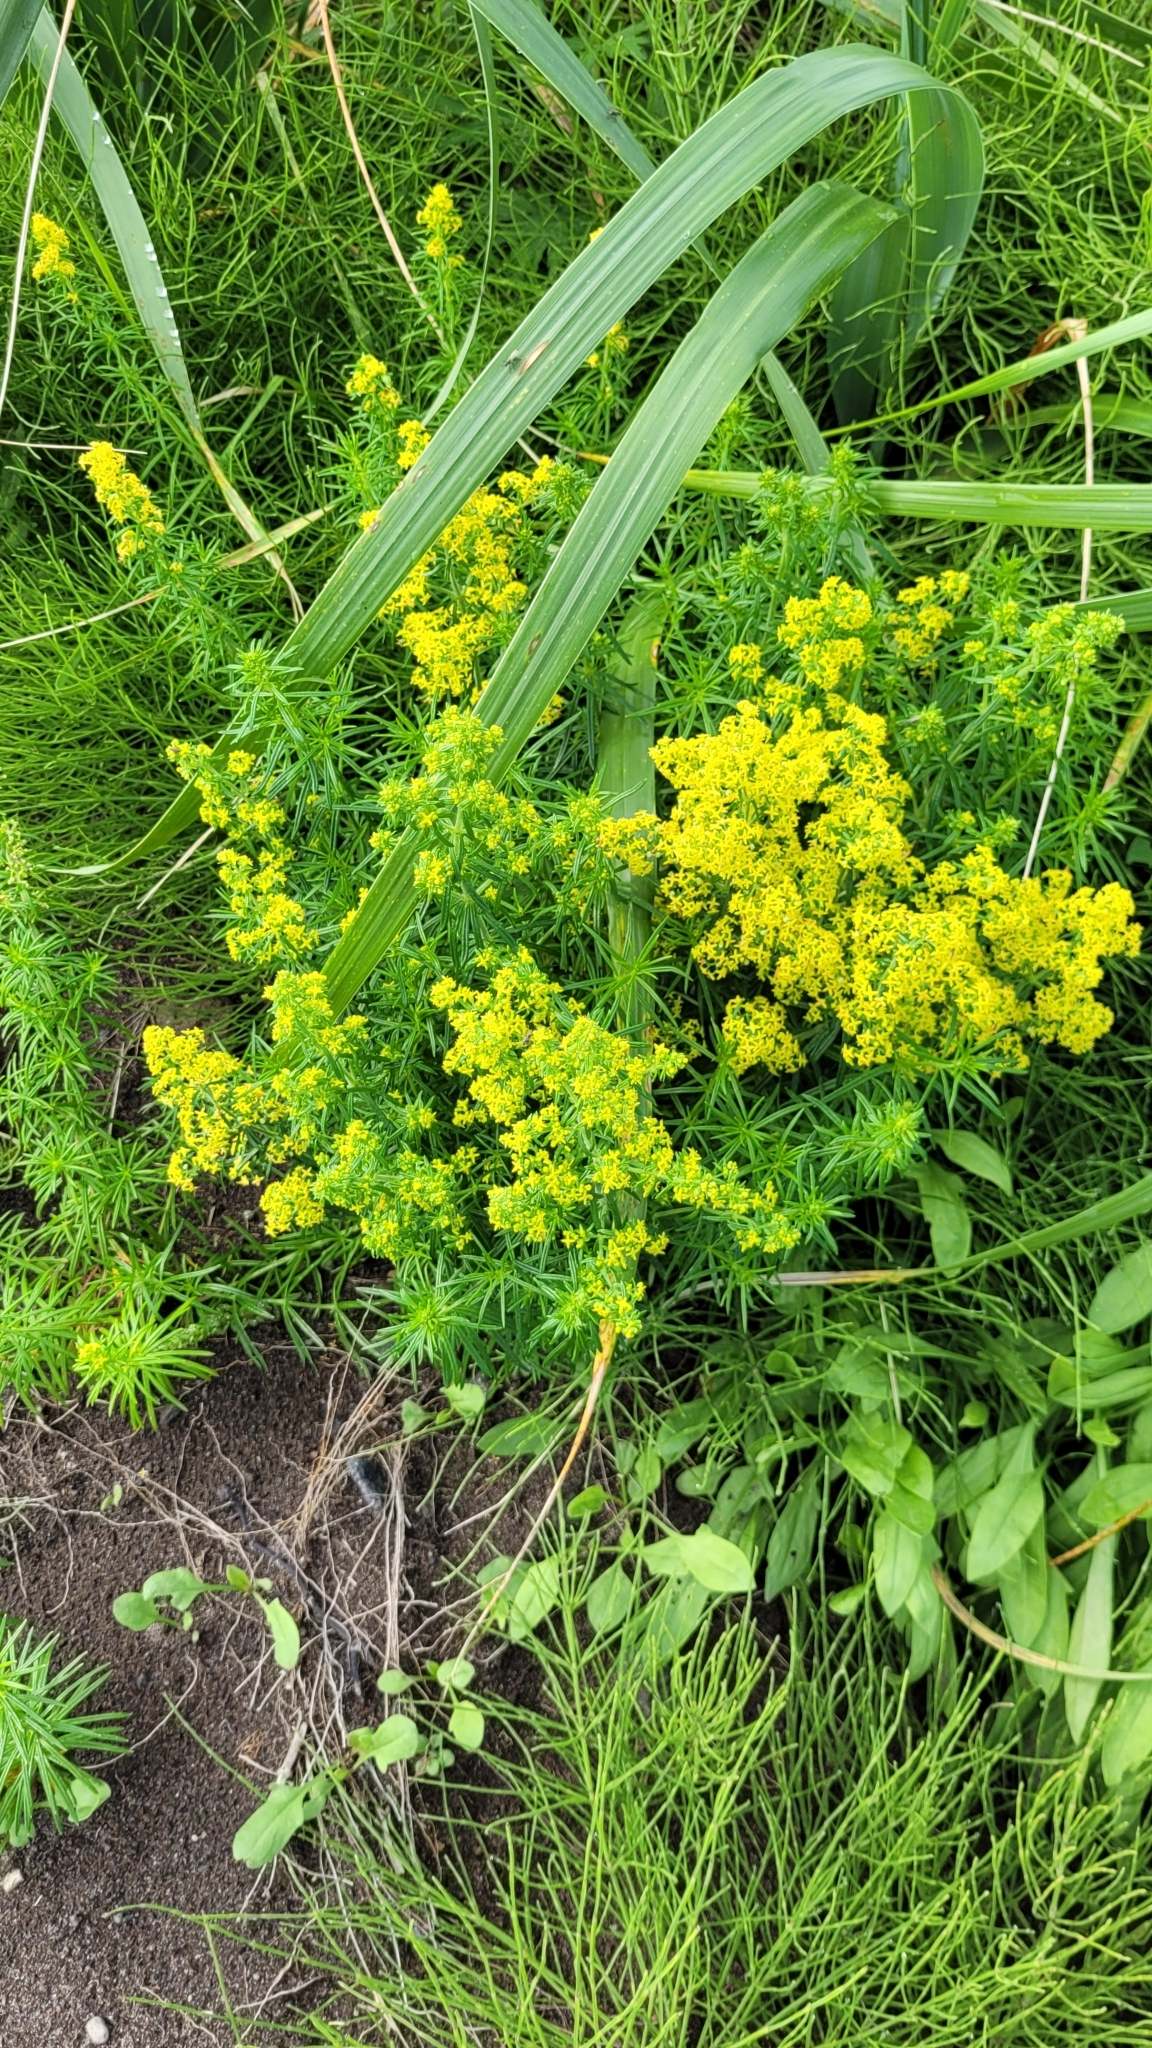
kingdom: Plantae
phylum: Tracheophyta
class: Magnoliopsida
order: Gentianales
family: Rubiaceae
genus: Galium
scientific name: Galium verum
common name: Lady's bedstraw
